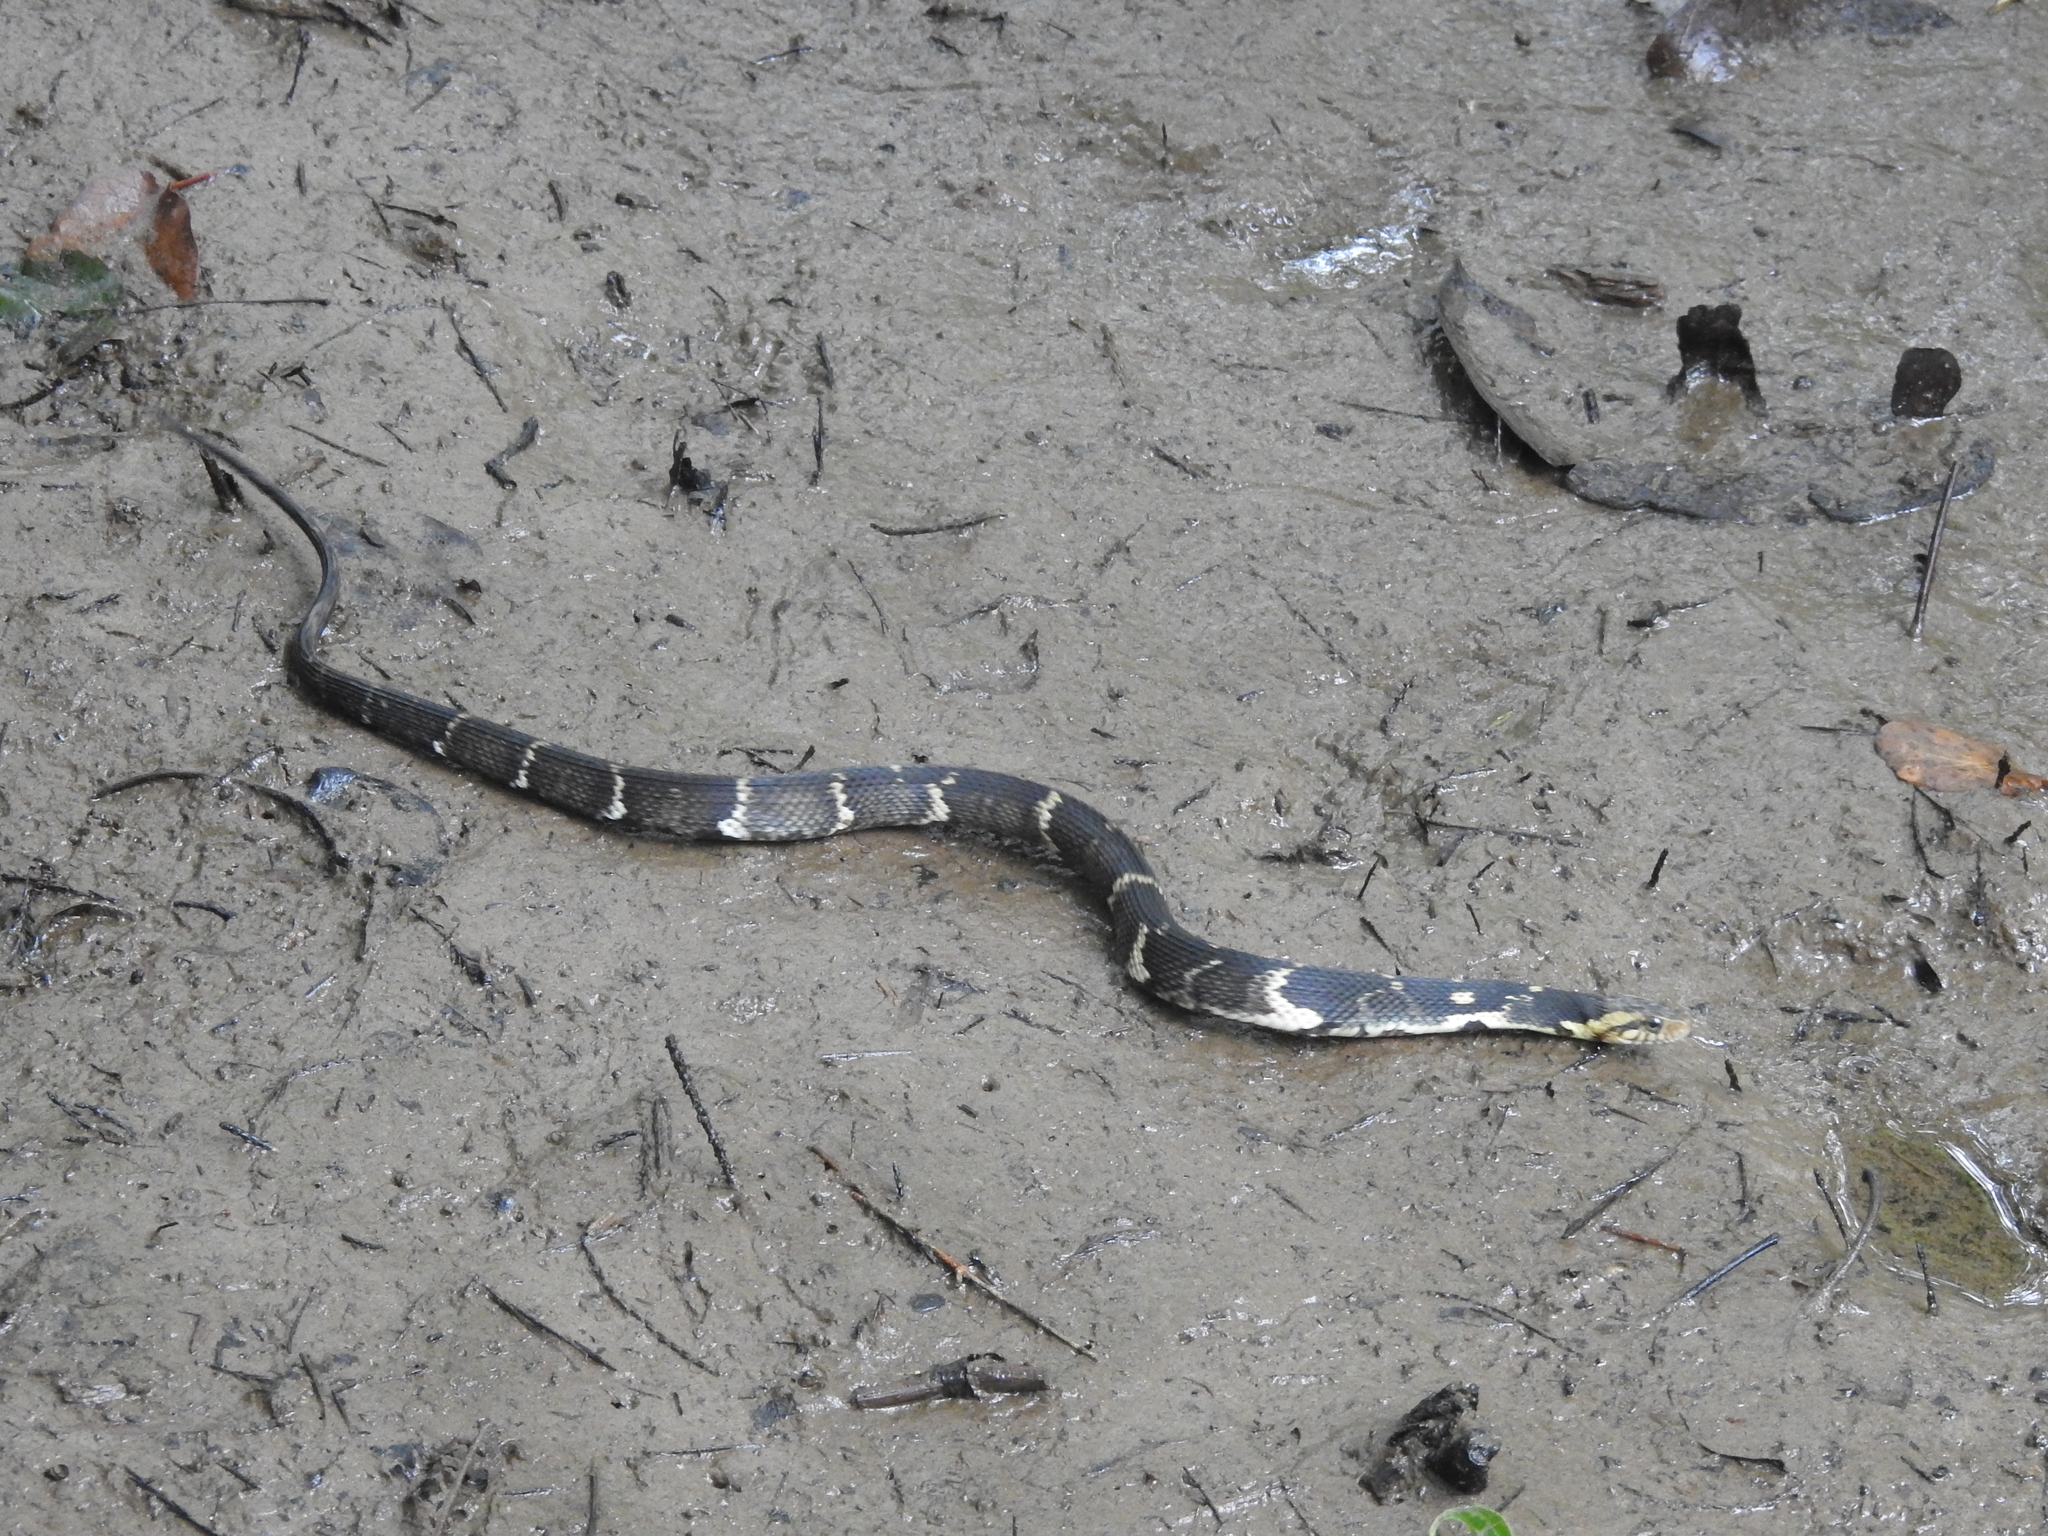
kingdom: Animalia
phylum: Chordata
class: Squamata
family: Colubridae
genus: Nerodia
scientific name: Nerodia fasciata
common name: Southern water snake
